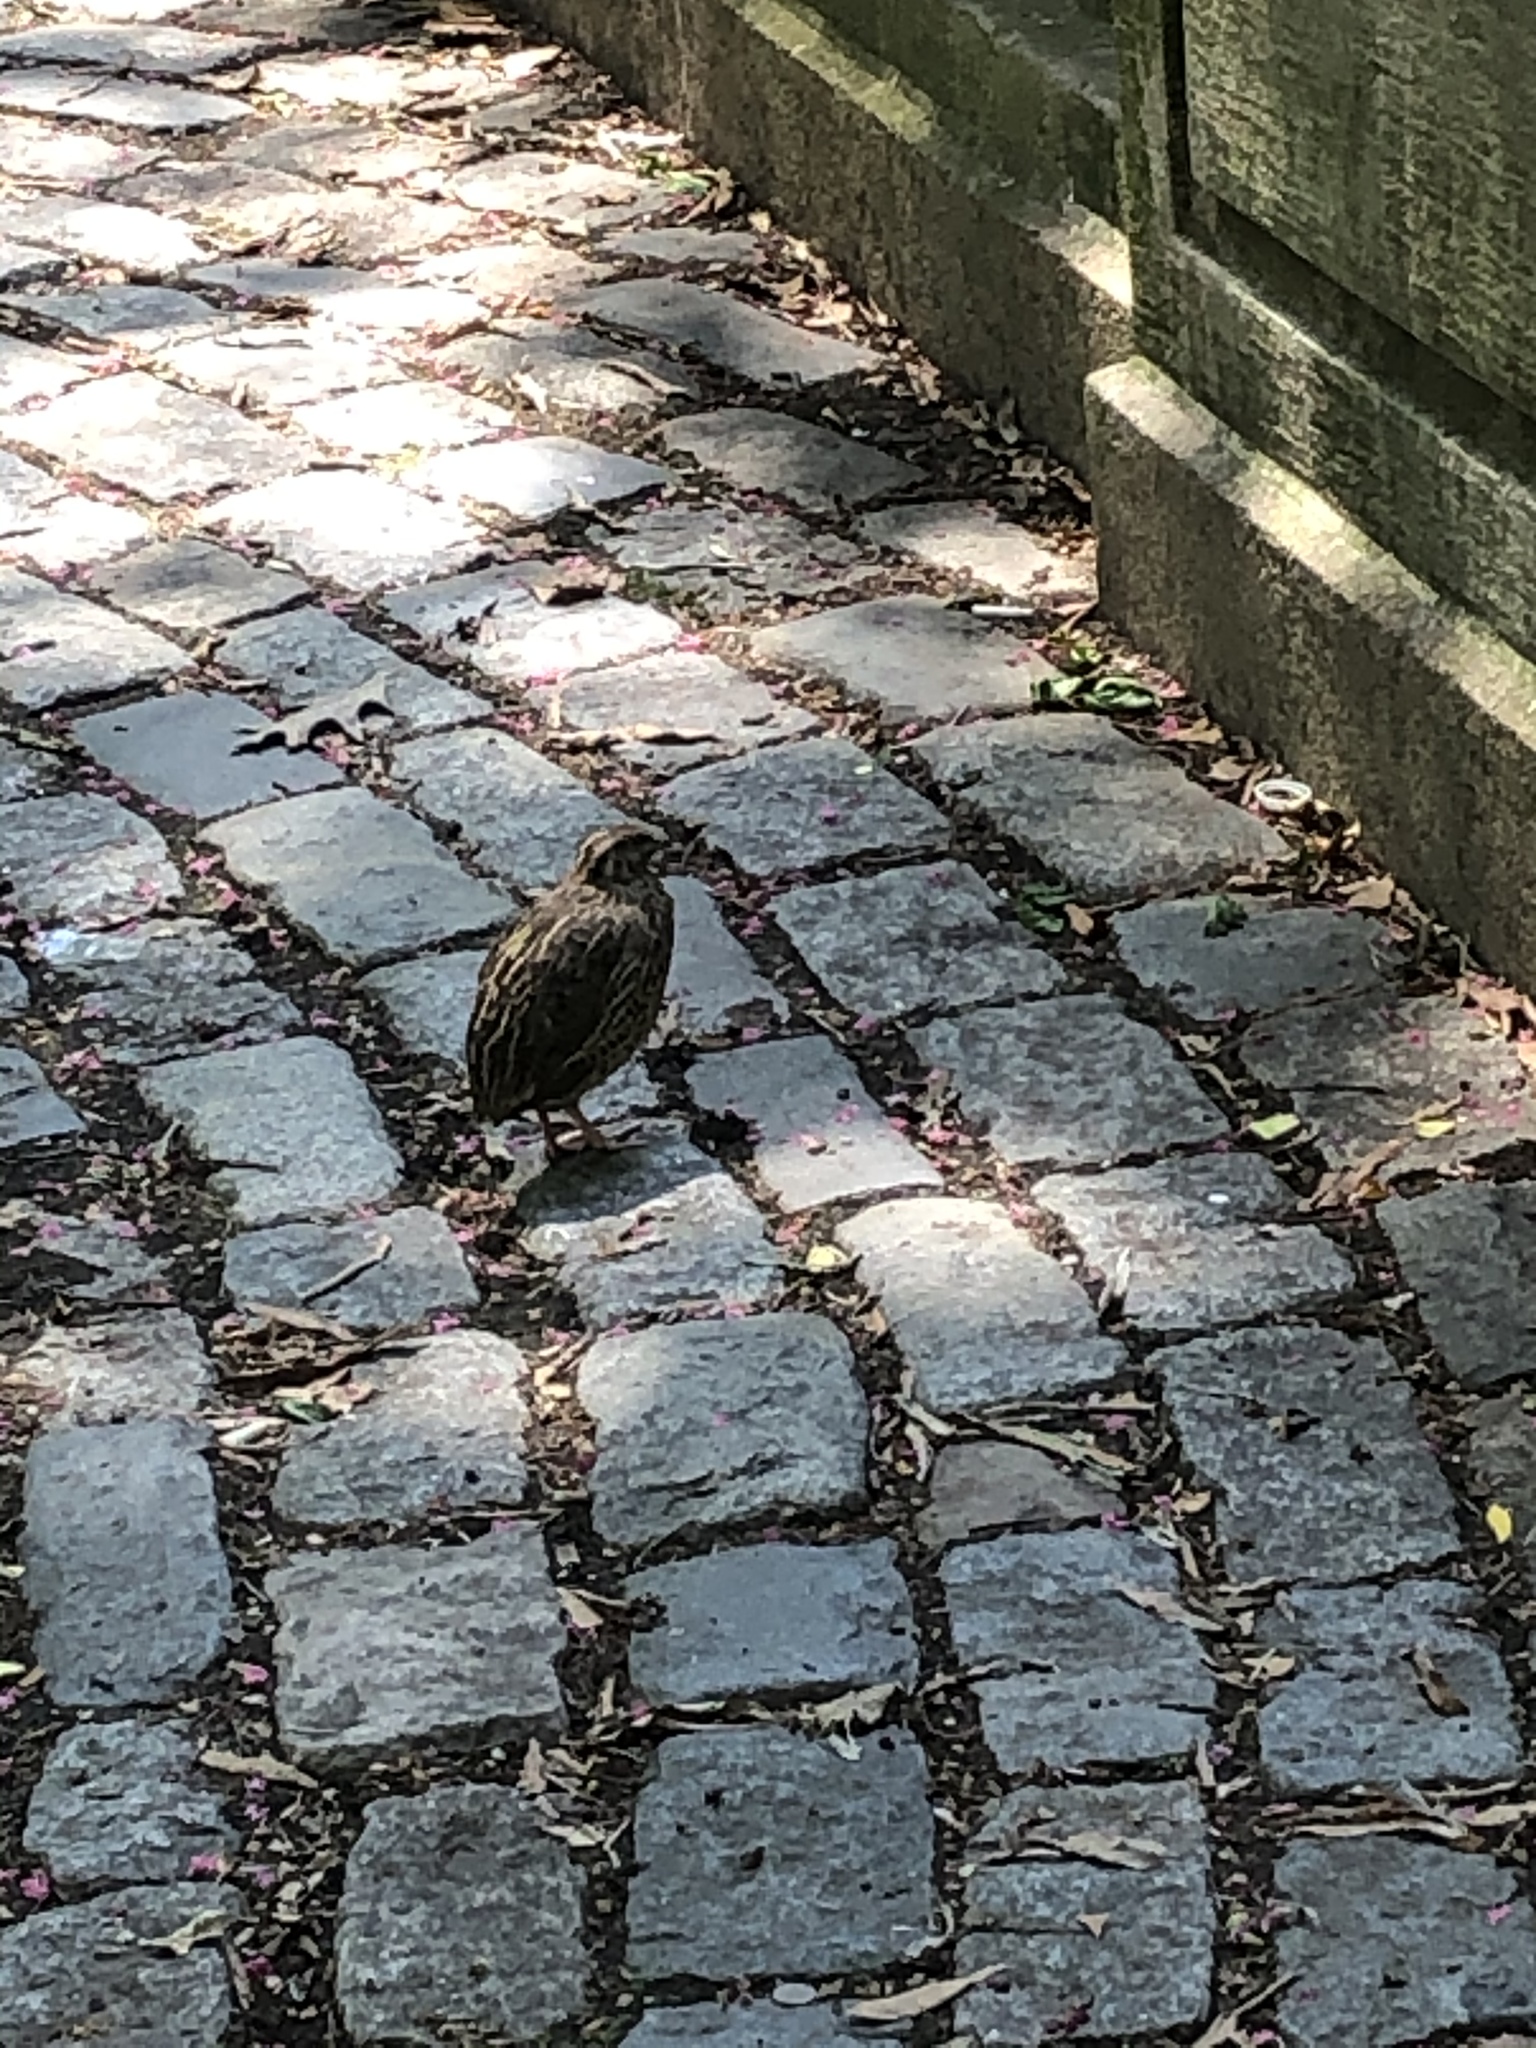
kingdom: Animalia
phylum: Chordata
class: Aves
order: Galliformes
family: Phasianidae
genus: Coturnix
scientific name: Coturnix japonica
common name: Japanese quail
